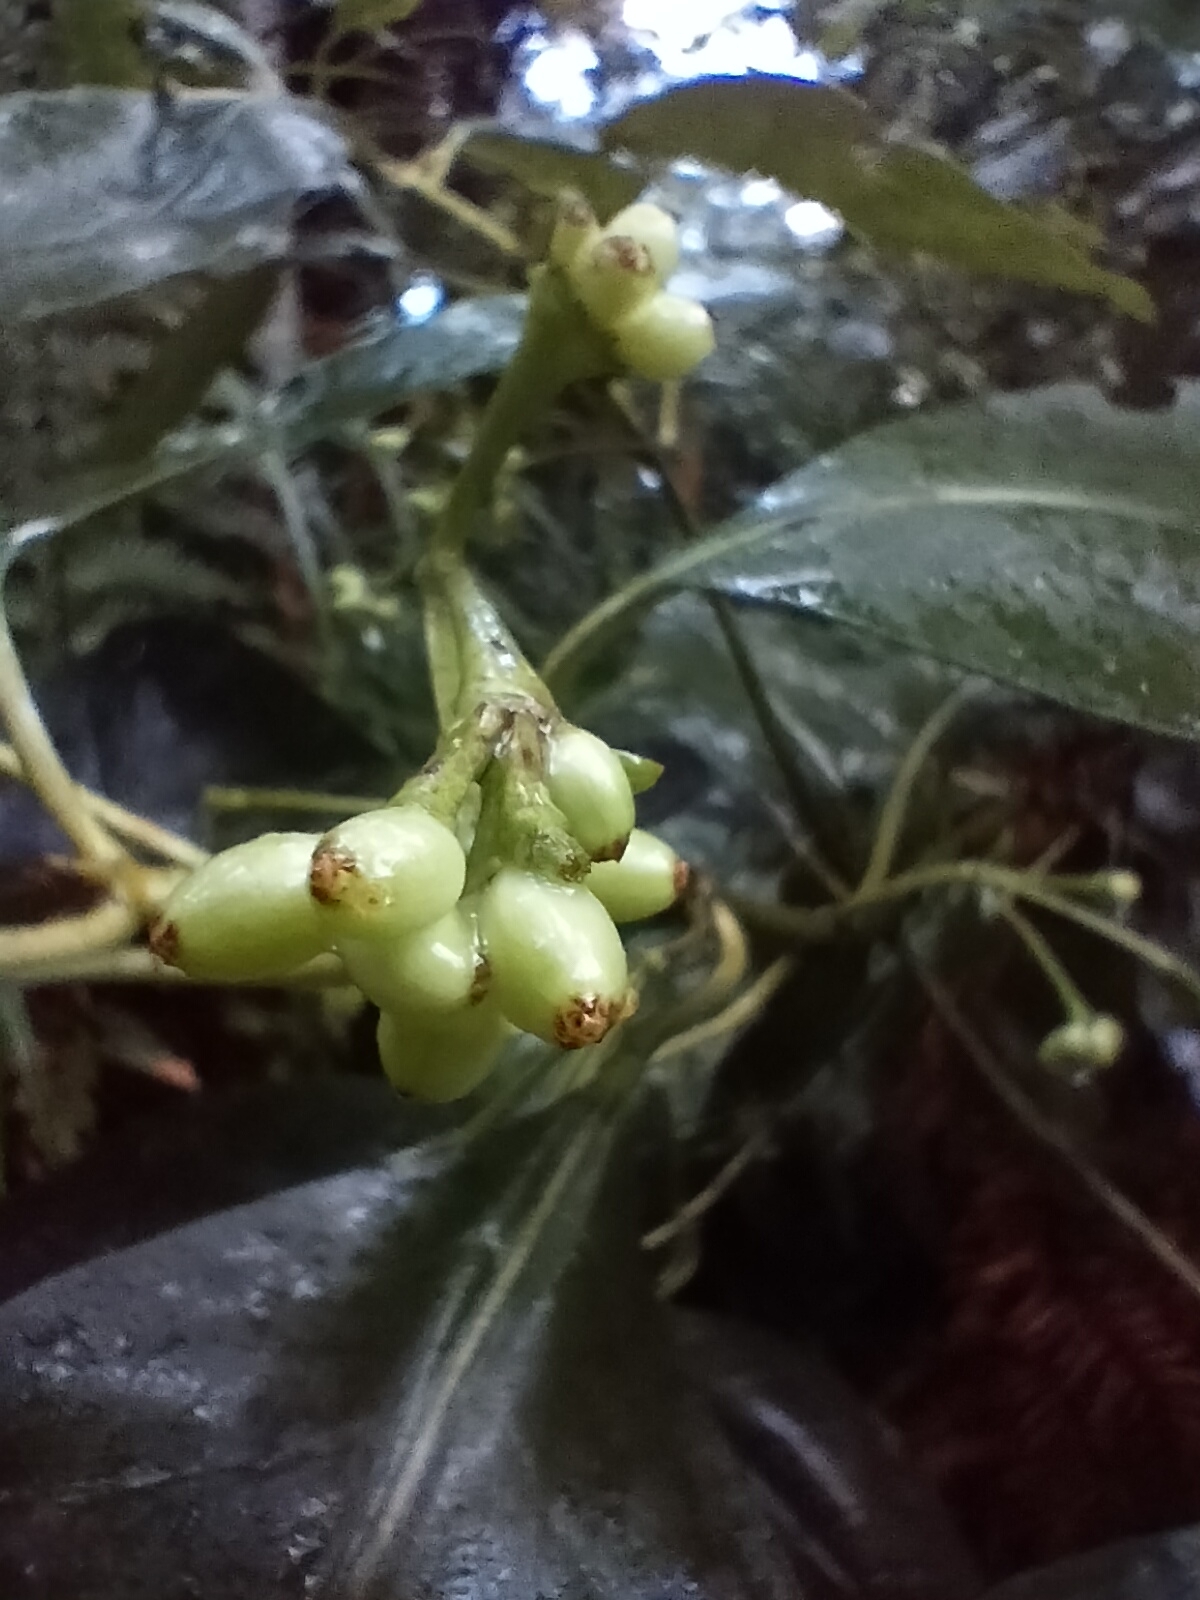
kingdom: Plantae
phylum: Tracheophyta
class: Magnoliopsida
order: Gentianales
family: Rubiaceae
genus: Coprosma
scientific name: Coprosma lucida
